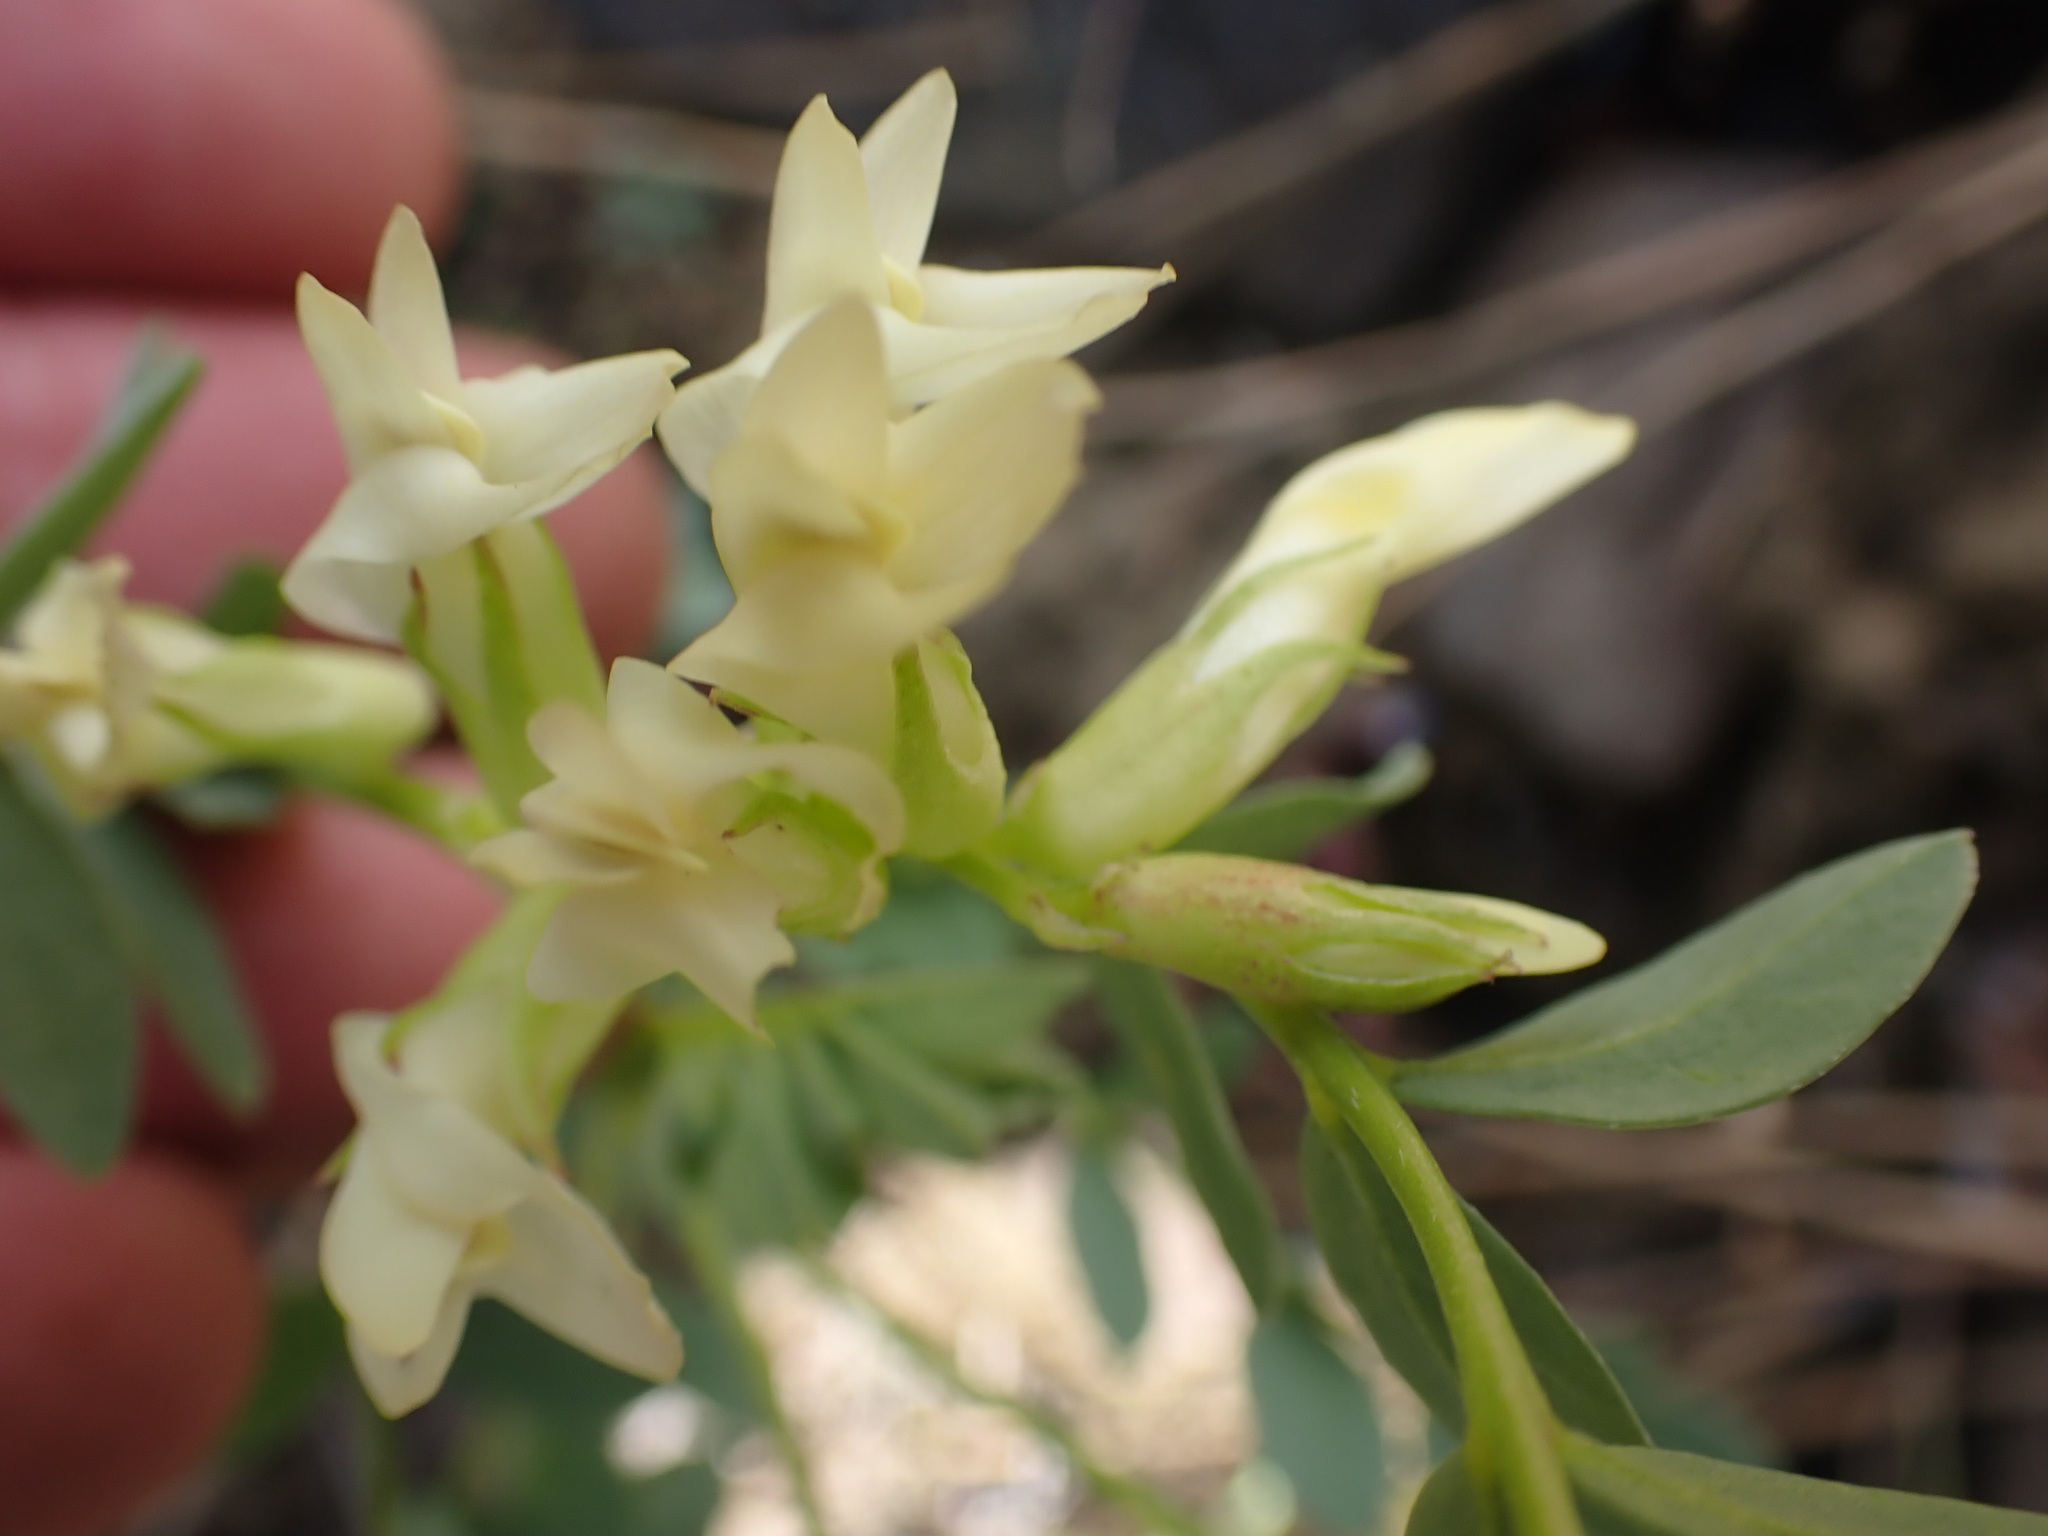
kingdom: Plantae
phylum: Tracheophyta
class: Magnoliopsida
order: Fabales
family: Fabaceae
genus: Astragalus
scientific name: Astragalus beckwithii
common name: Beckwith's milk-vetch
